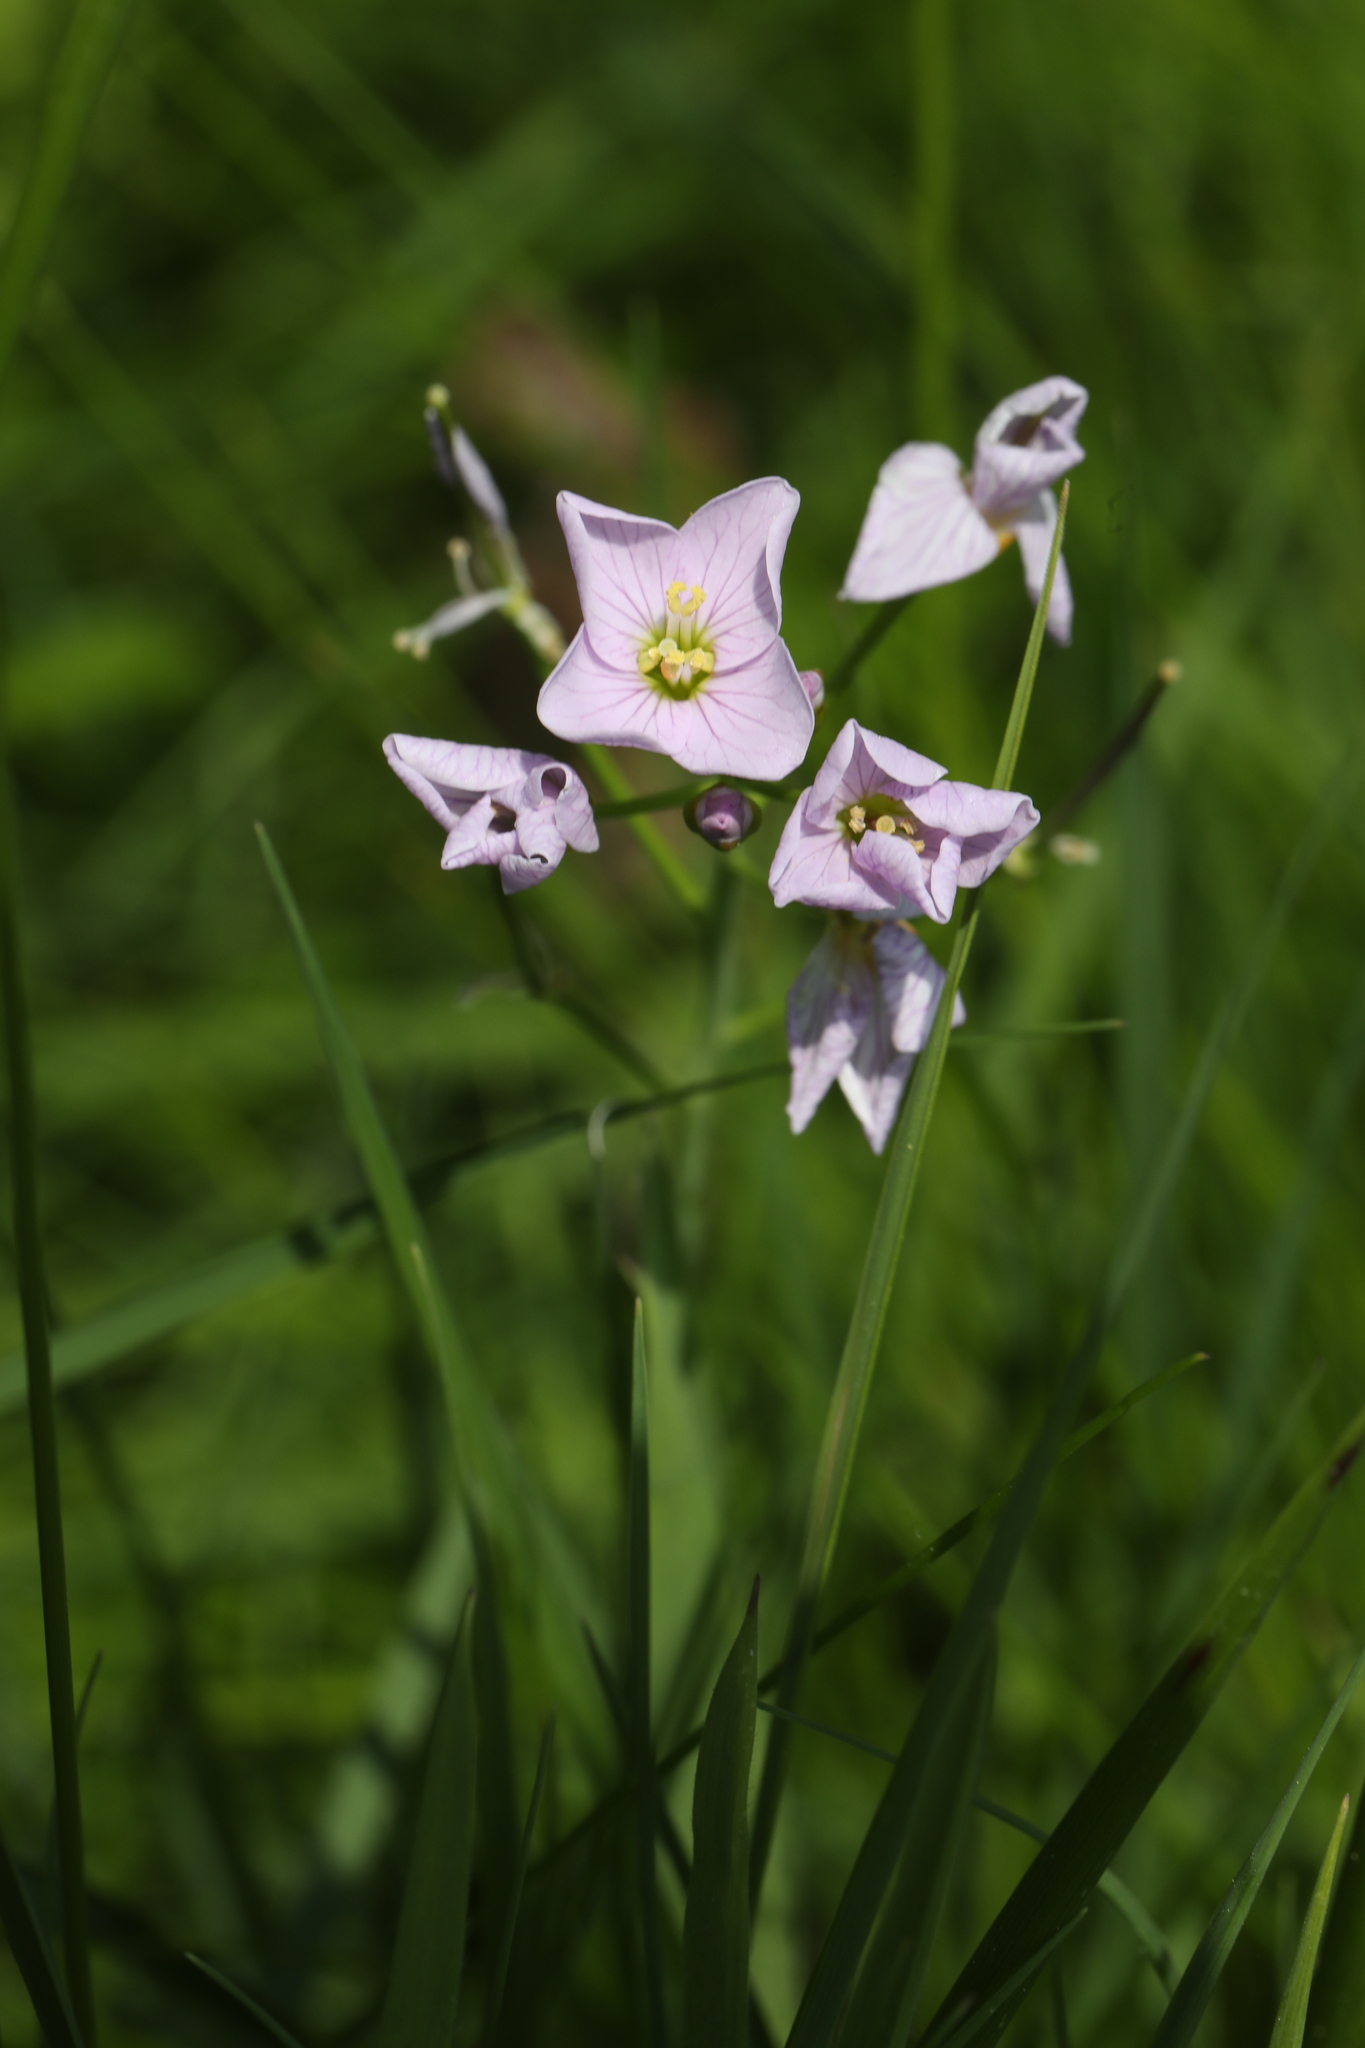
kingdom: Plantae
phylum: Tracheophyta
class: Magnoliopsida
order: Brassicales
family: Brassicaceae
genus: Cardamine
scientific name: Cardamine pratensis
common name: Cuckoo flower
